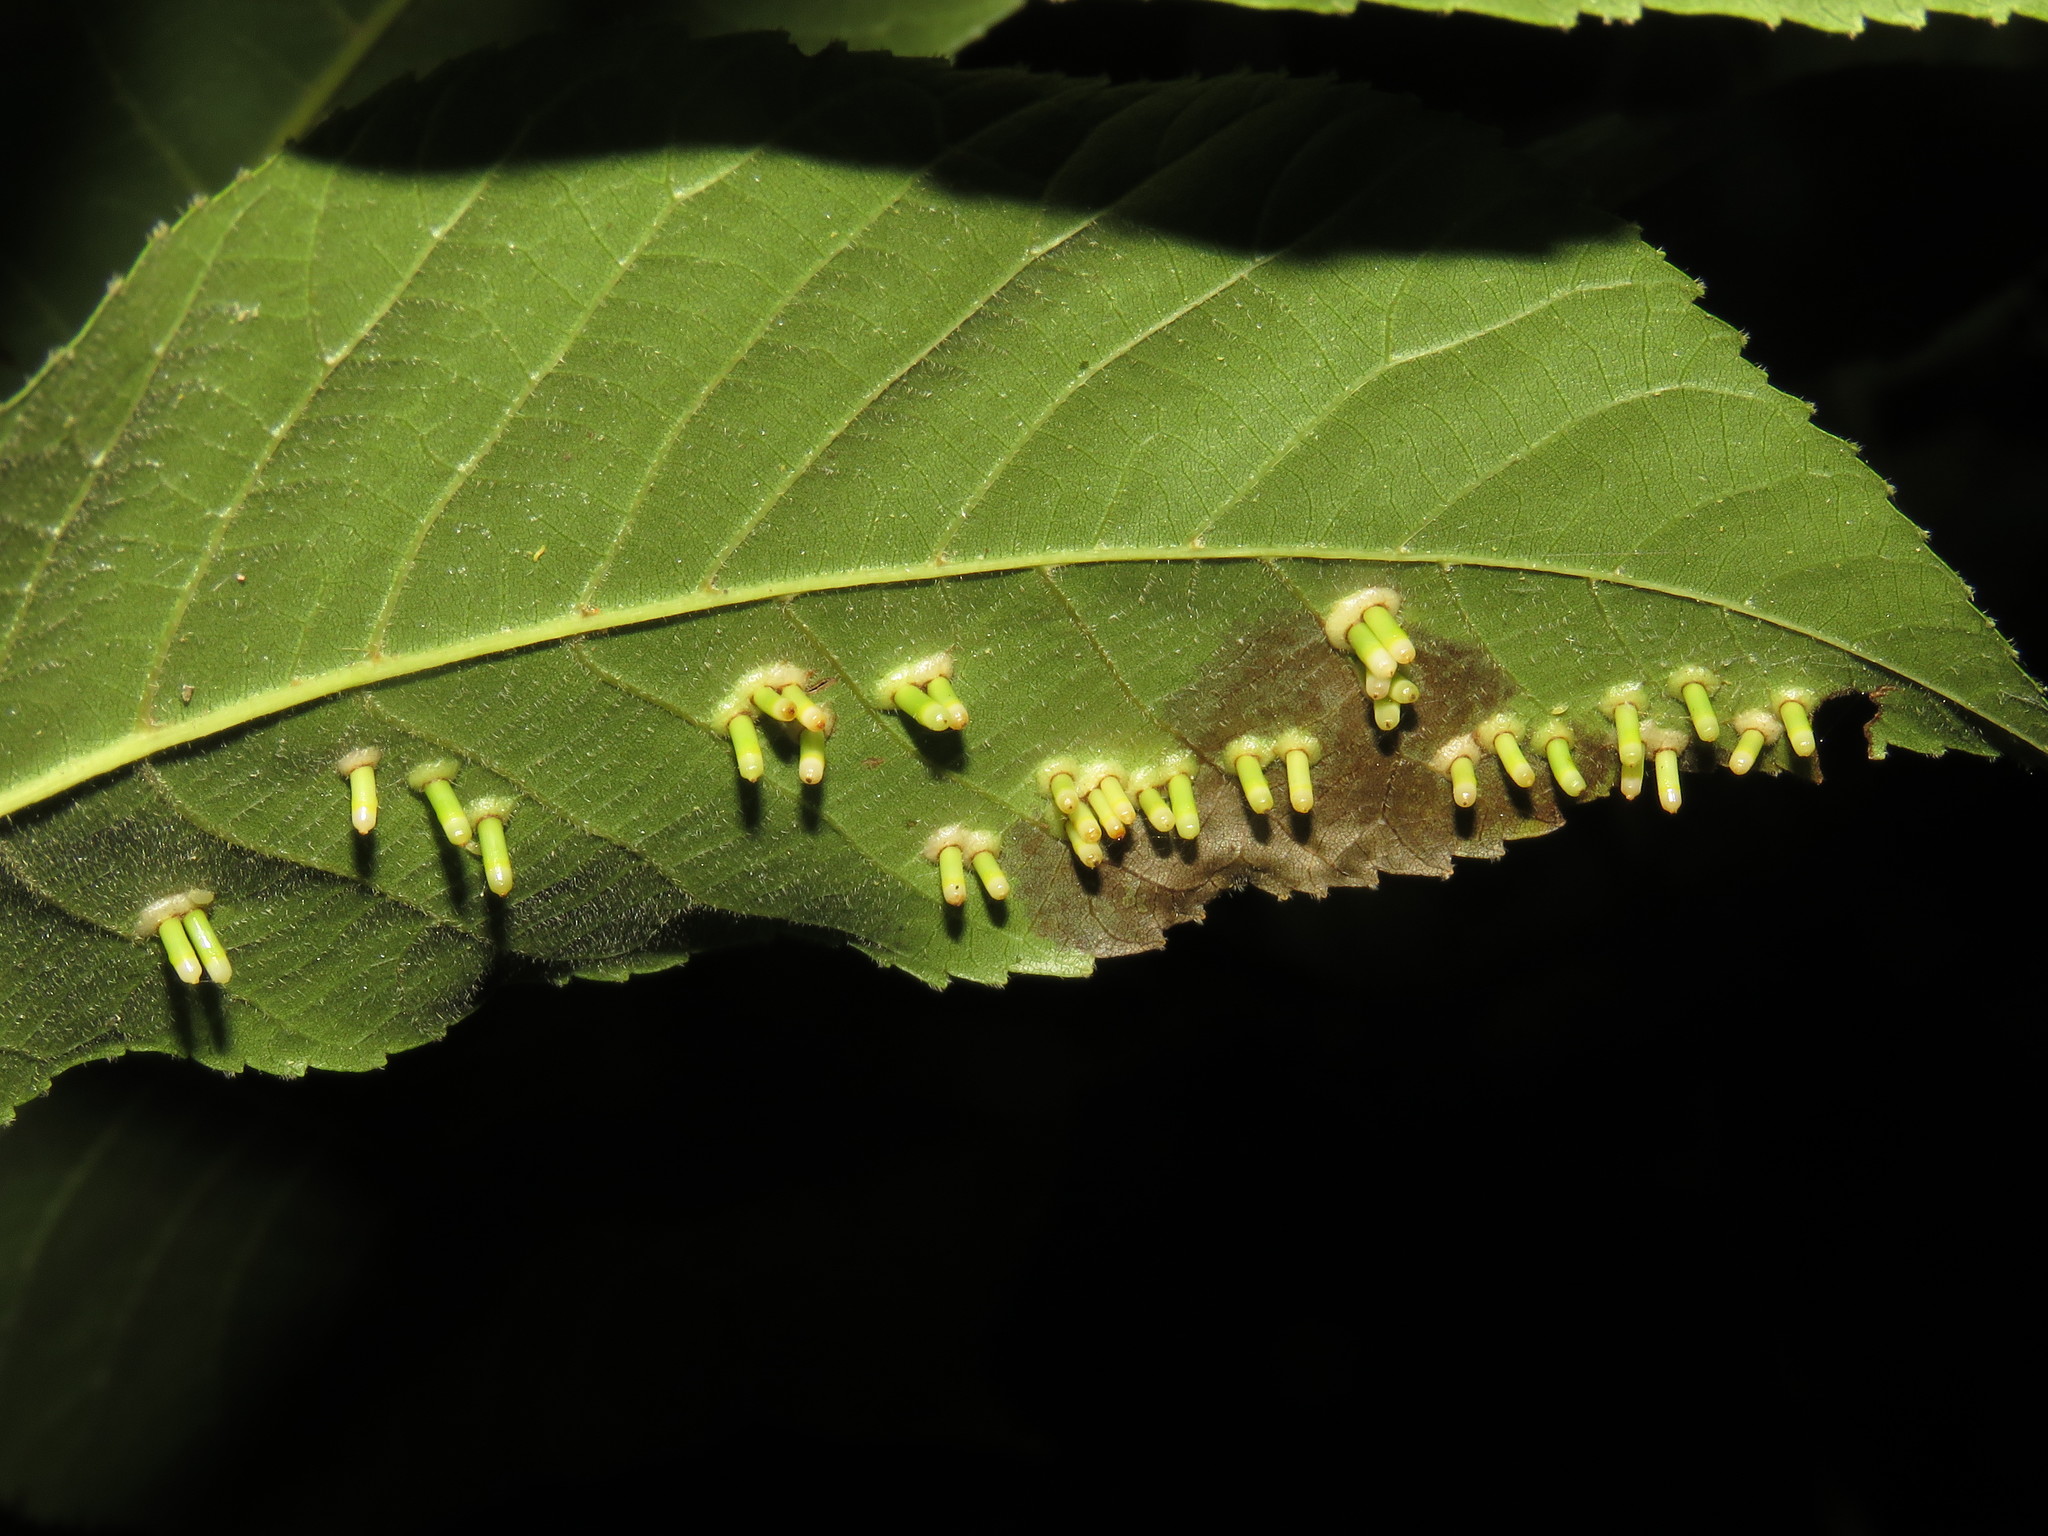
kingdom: Animalia
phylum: Arthropoda
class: Insecta
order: Diptera
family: Cecidomyiidae
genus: Caryomyia
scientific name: Caryomyia tubicola
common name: Hickory bullet gall midge
